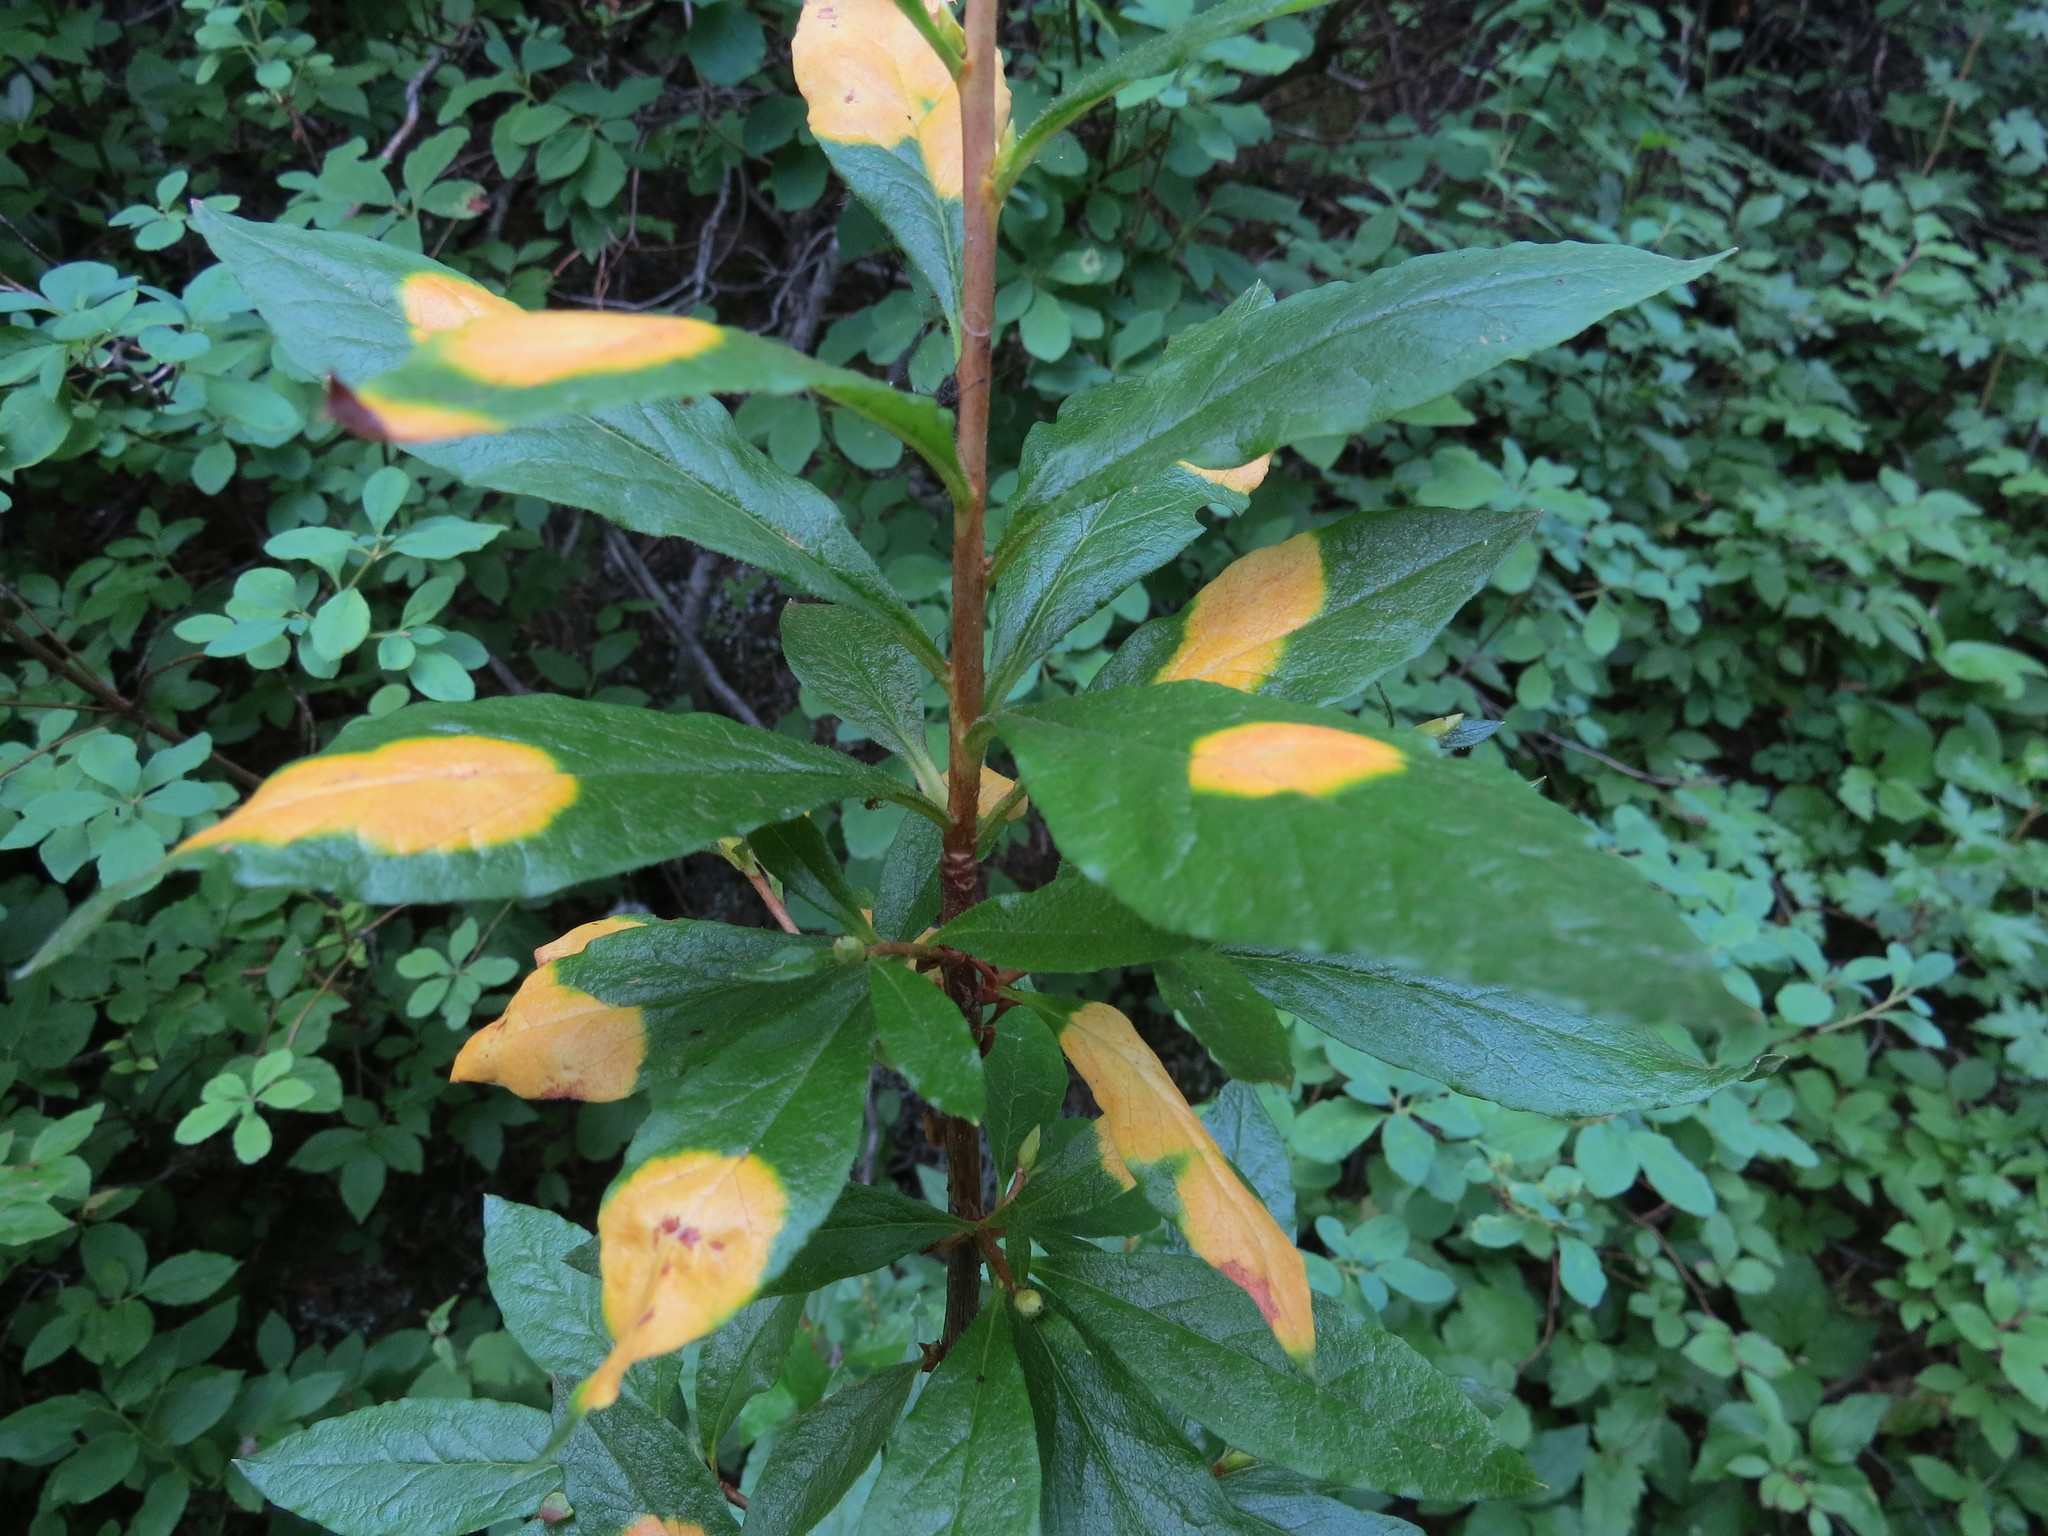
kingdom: Plantae
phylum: Tracheophyta
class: Magnoliopsida
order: Ericales
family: Ericaceae
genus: Rhododendron
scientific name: Rhododendron albiflorum
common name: White rhododendron
